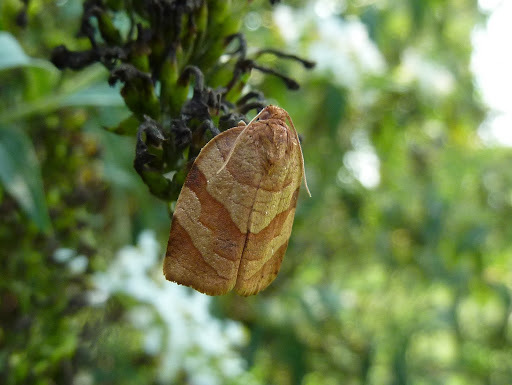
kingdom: Animalia
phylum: Arthropoda
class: Insecta
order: Lepidoptera
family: Tortricidae
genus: Choristoneura
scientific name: Choristoneura parallela
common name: Parallel-banded leafroller moth
